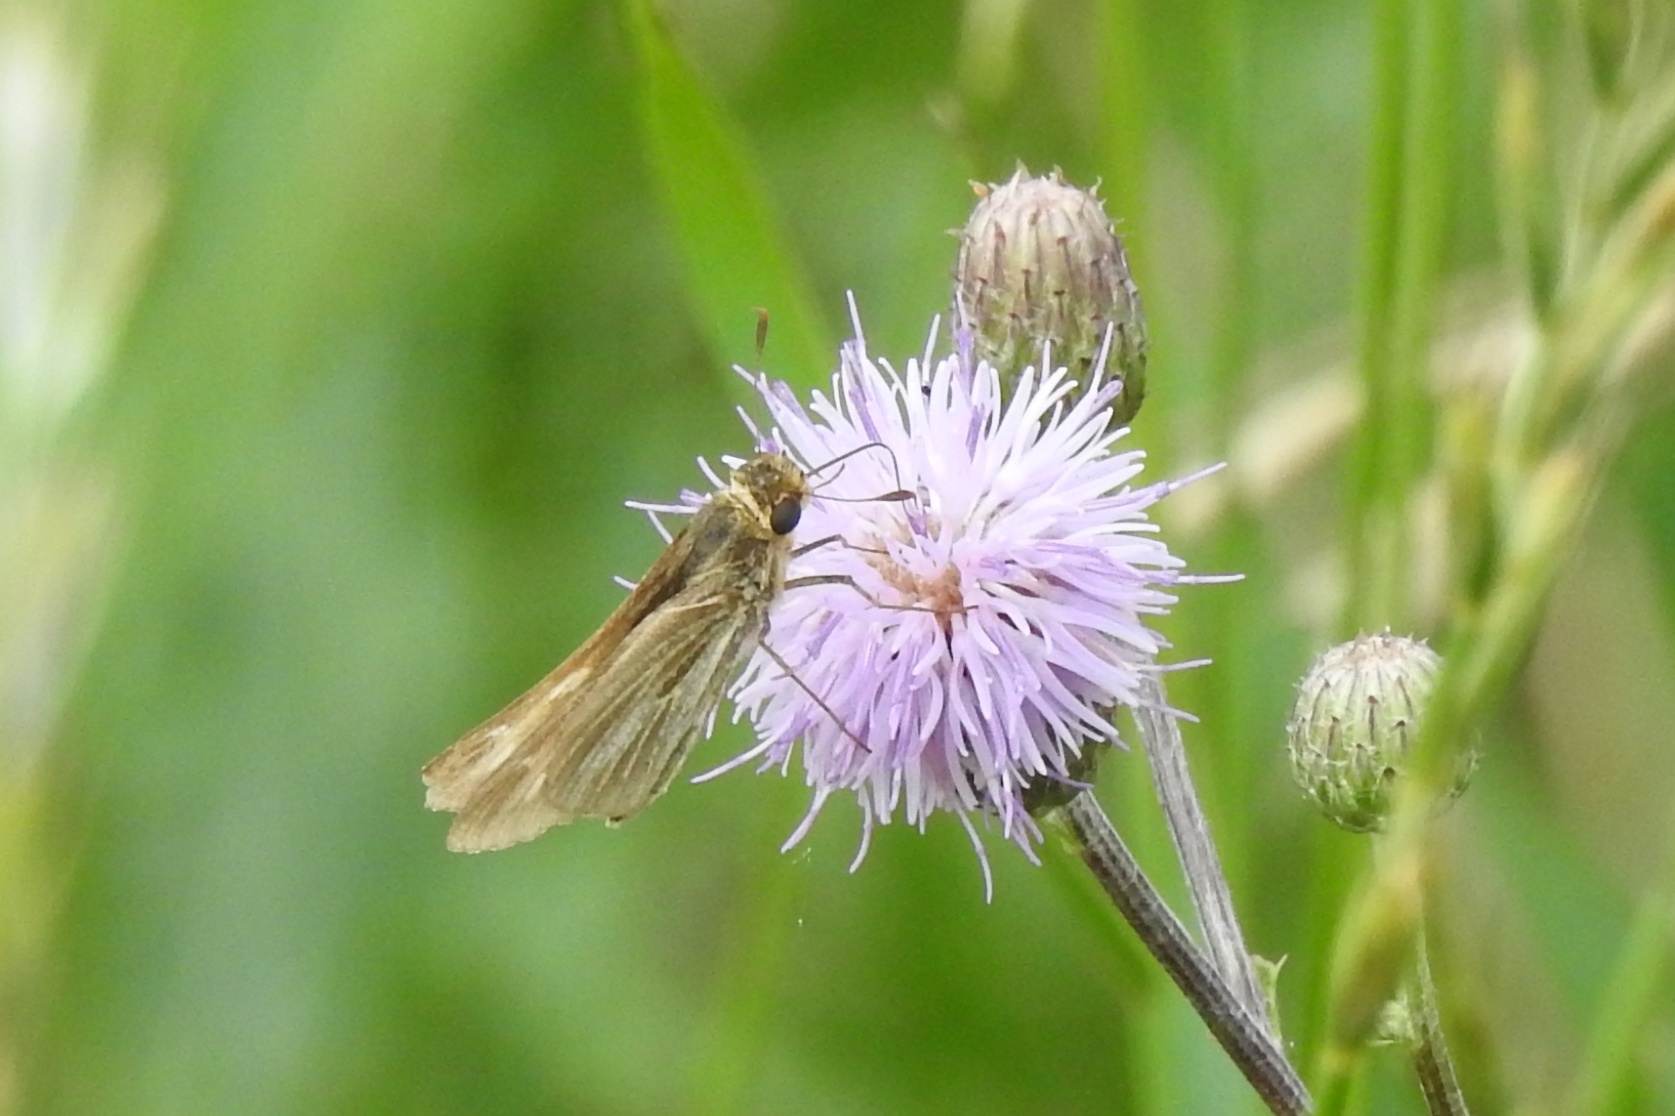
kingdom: Animalia
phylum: Arthropoda
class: Insecta
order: Lepidoptera
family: Hesperiidae
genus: Panoquina
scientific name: Panoquina panoquin
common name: Salt marsh skipper
